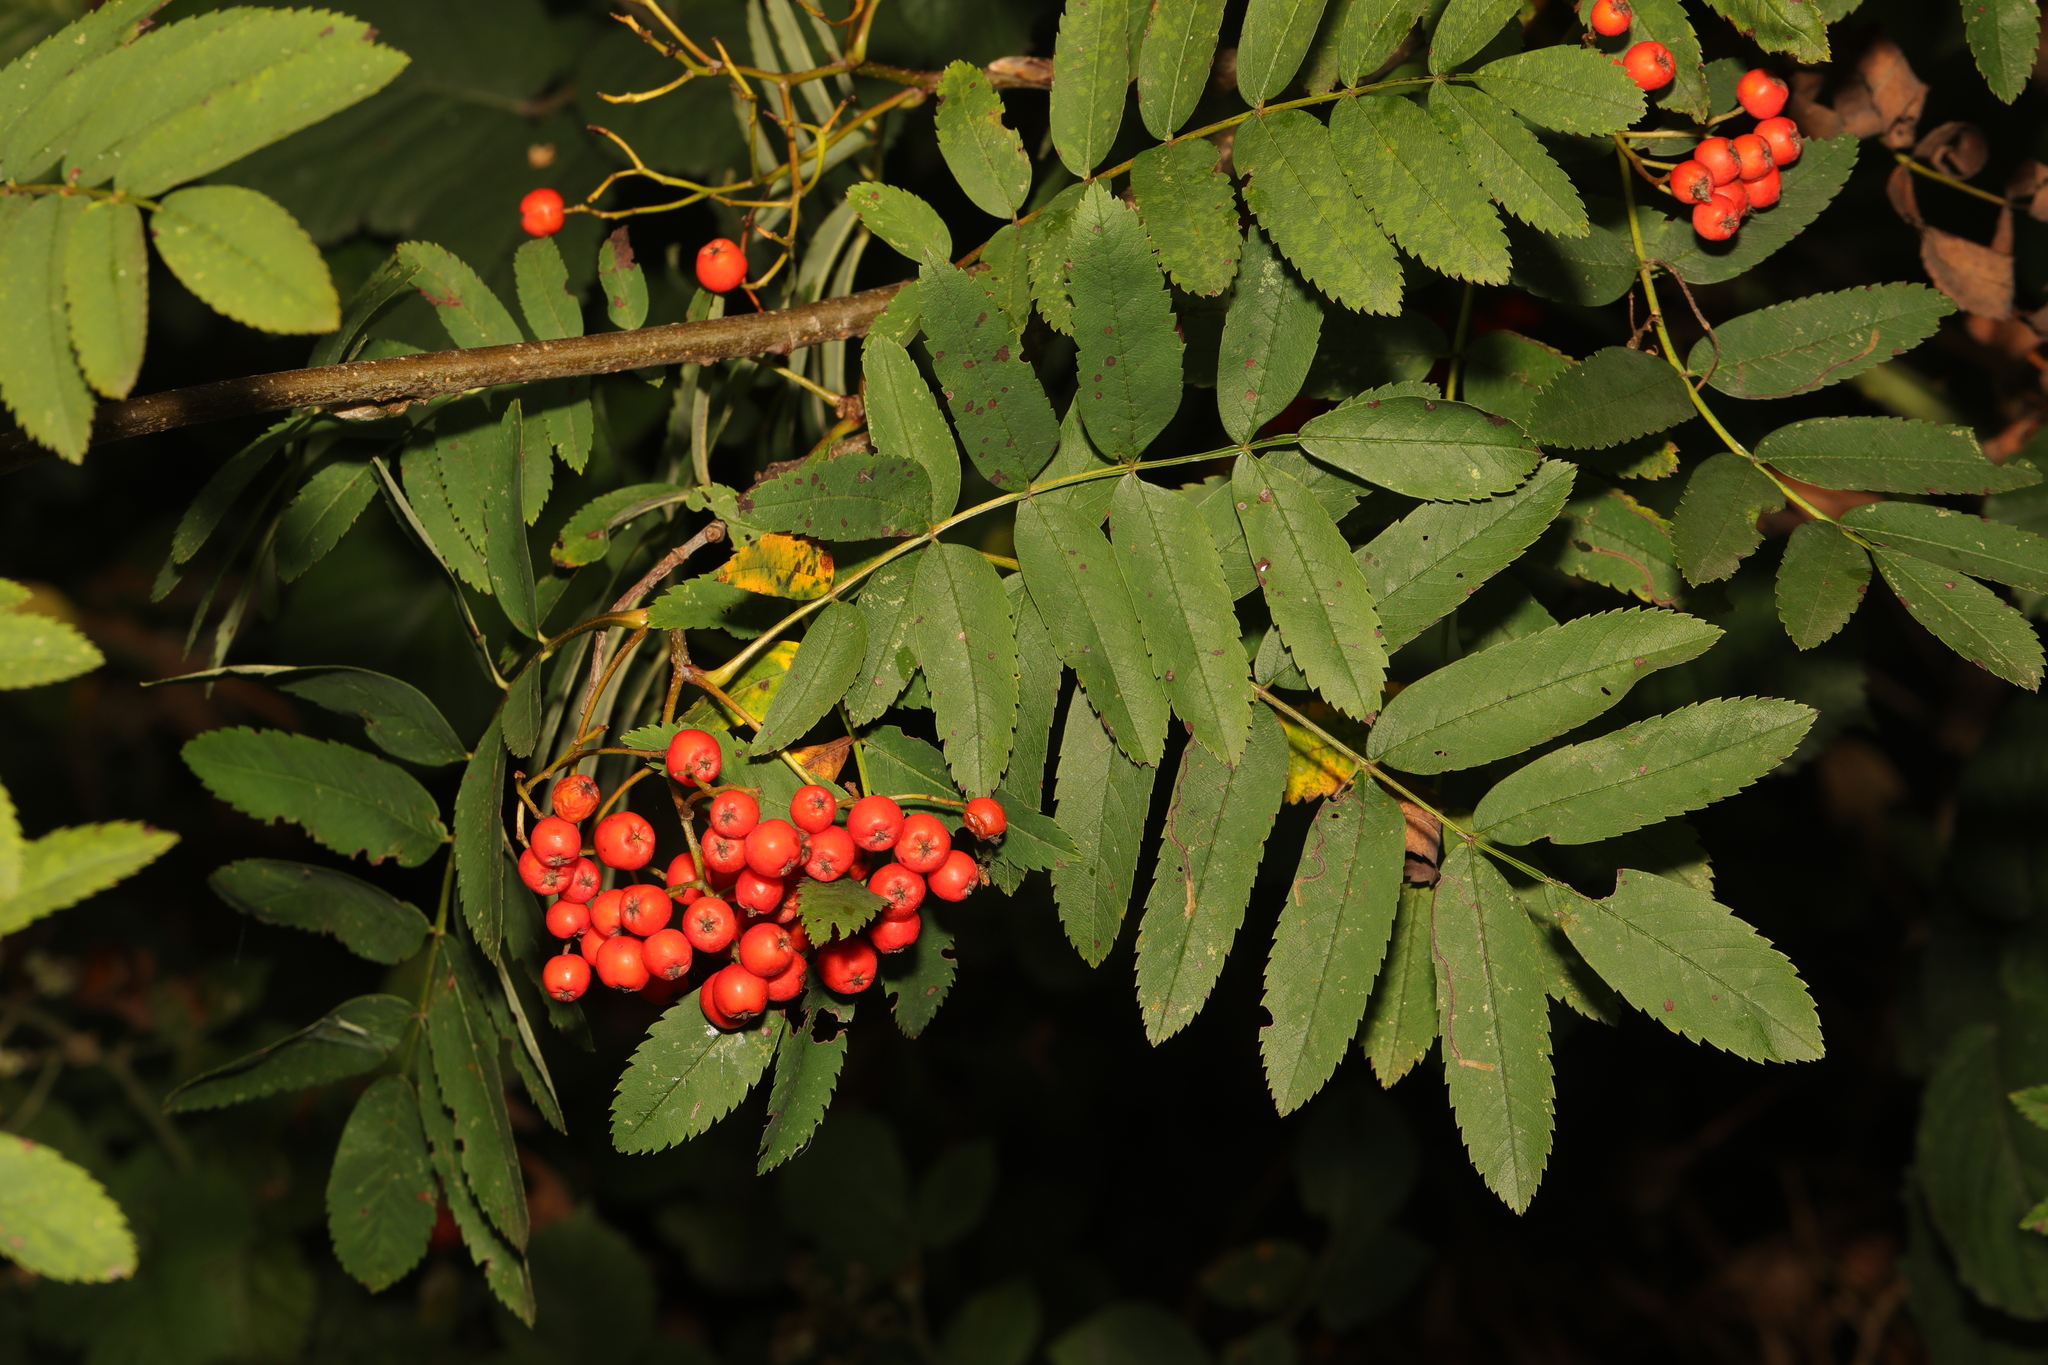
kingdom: Plantae
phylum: Tracheophyta
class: Magnoliopsida
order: Rosales
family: Rosaceae
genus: Sorbus
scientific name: Sorbus aucuparia
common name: Rowan
